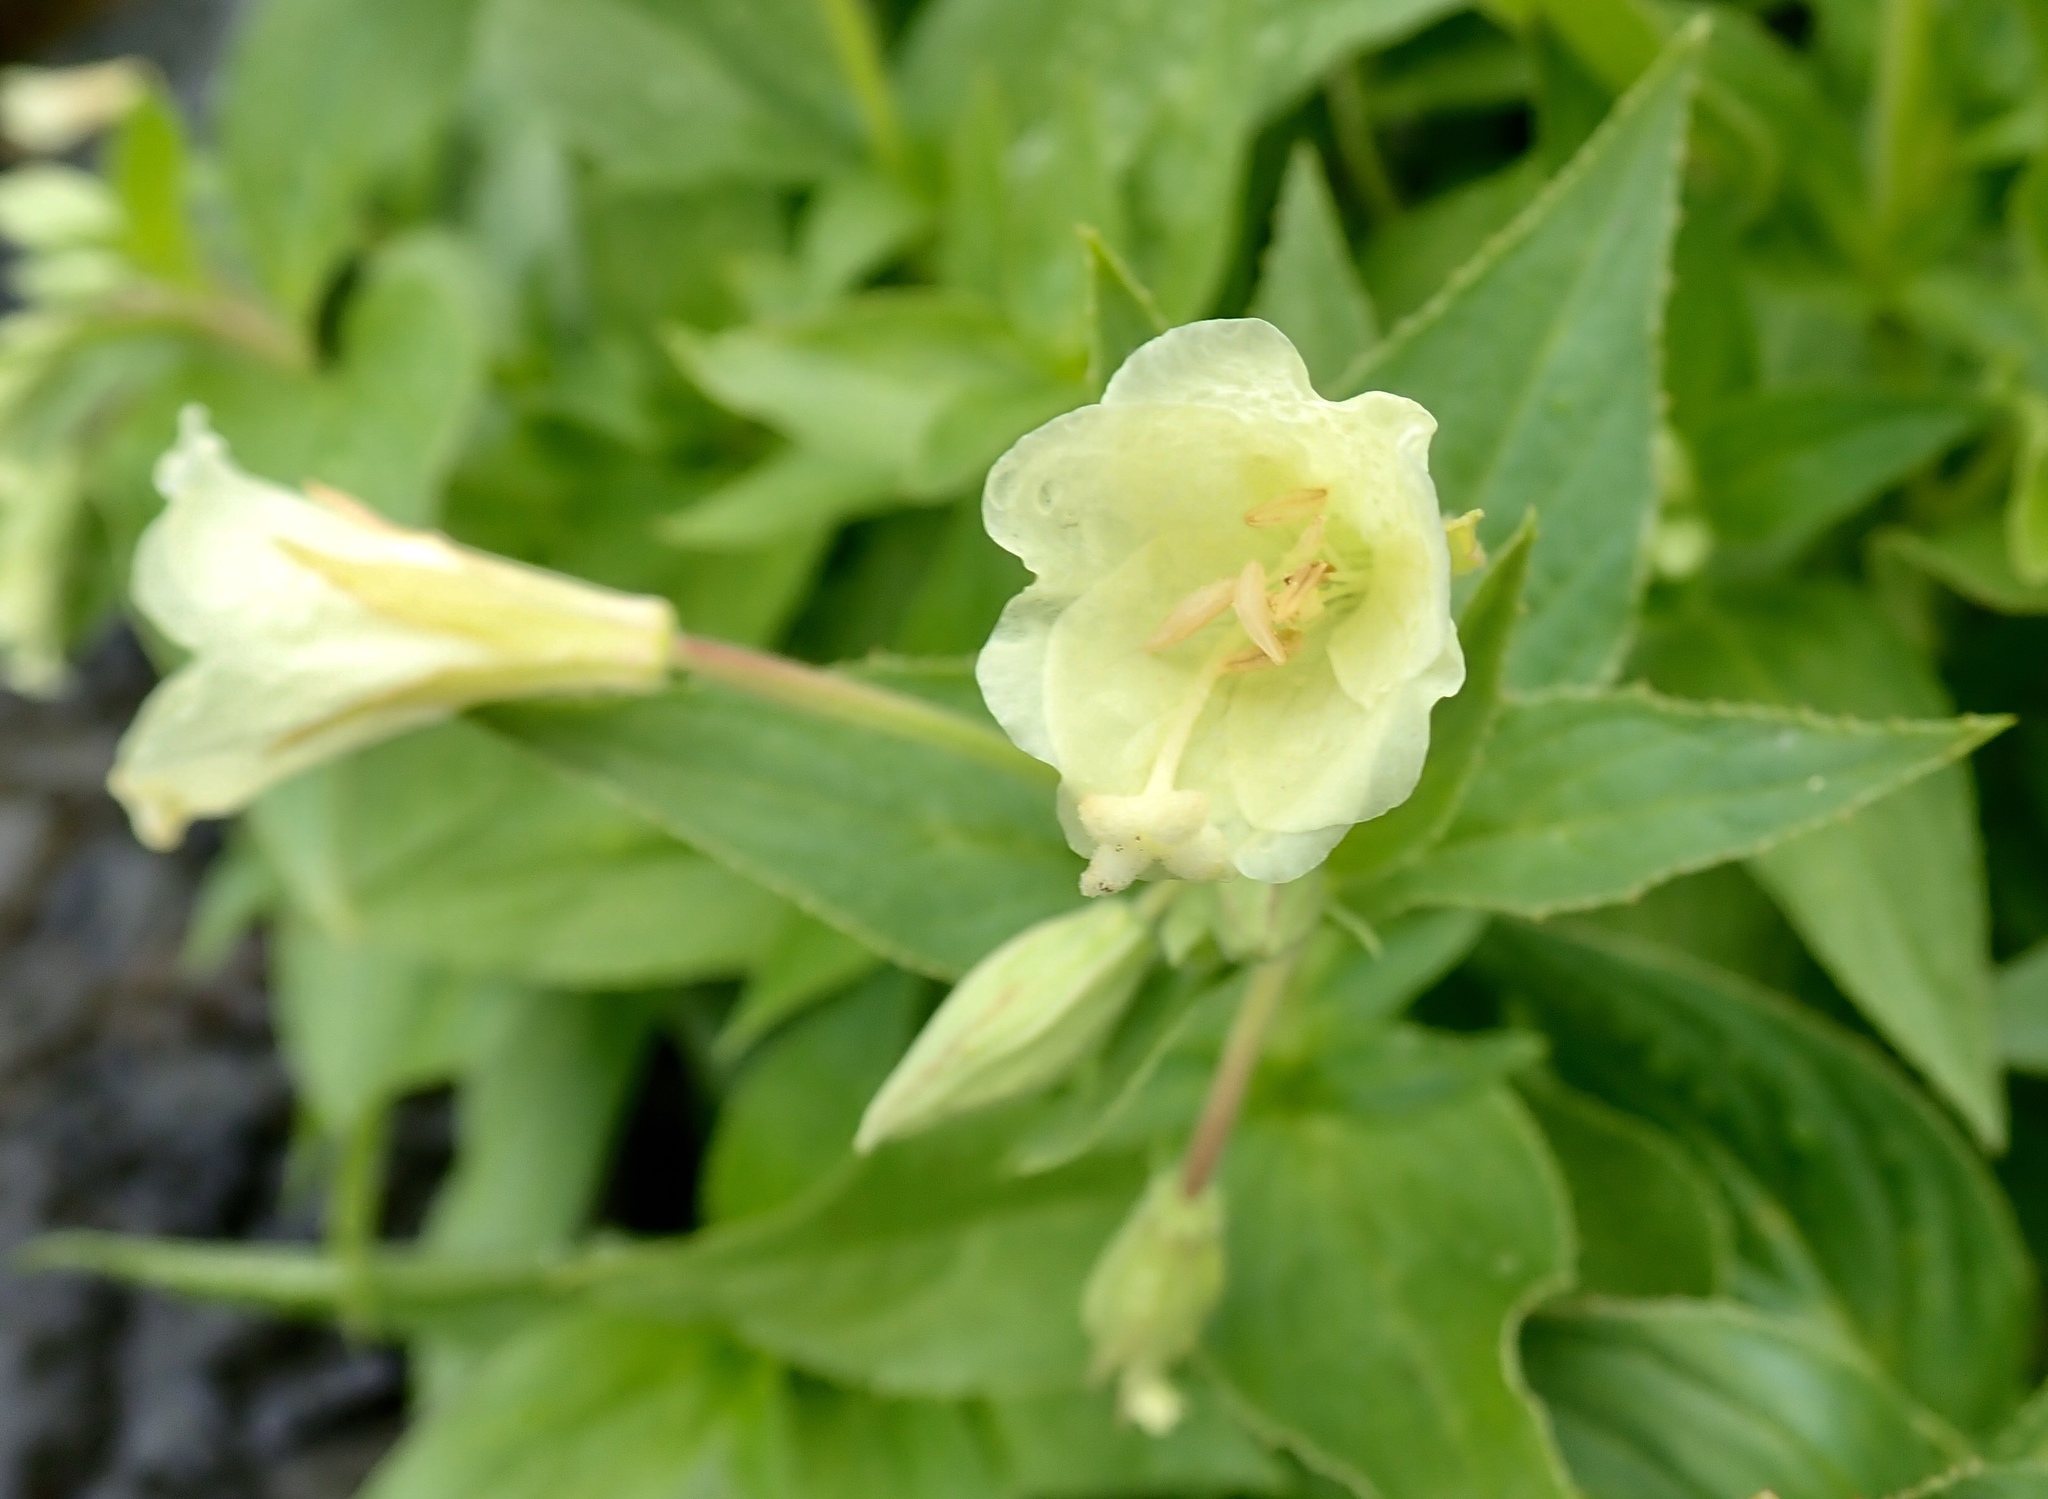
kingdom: Plantae
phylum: Tracheophyta
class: Magnoliopsida
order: Myrtales
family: Onagraceae
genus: Epilobium
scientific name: Epilobium luteum
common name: Yellow willowherb
